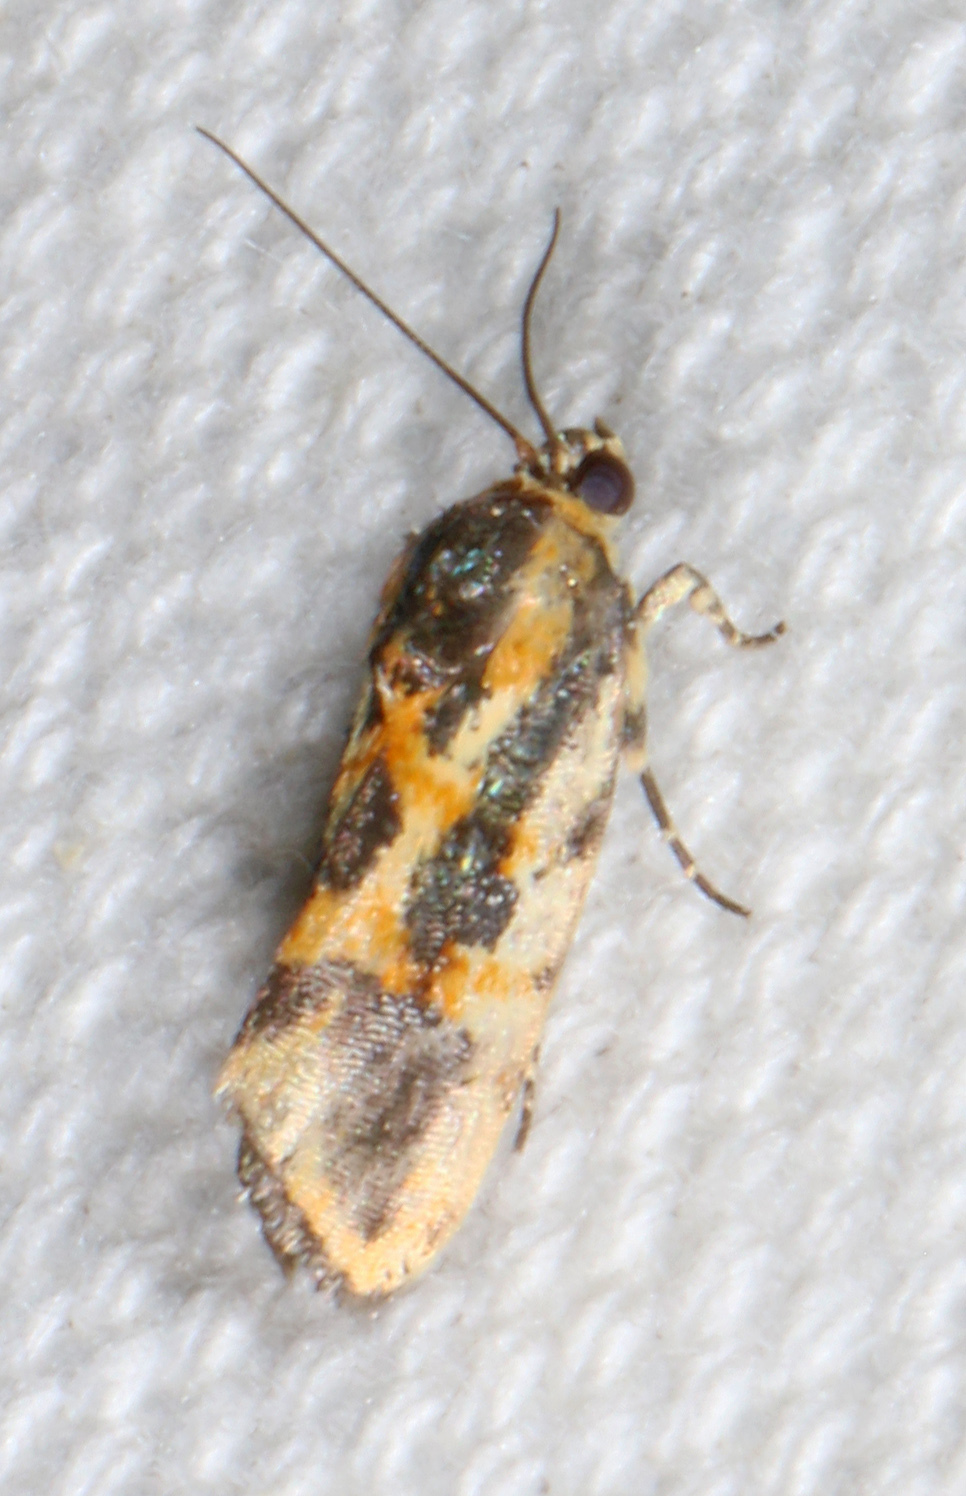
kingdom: Animalia
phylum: Arthropoda
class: Insecta
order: Lepidoptera
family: Noctuidae
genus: Acontia
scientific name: Acontia leo
